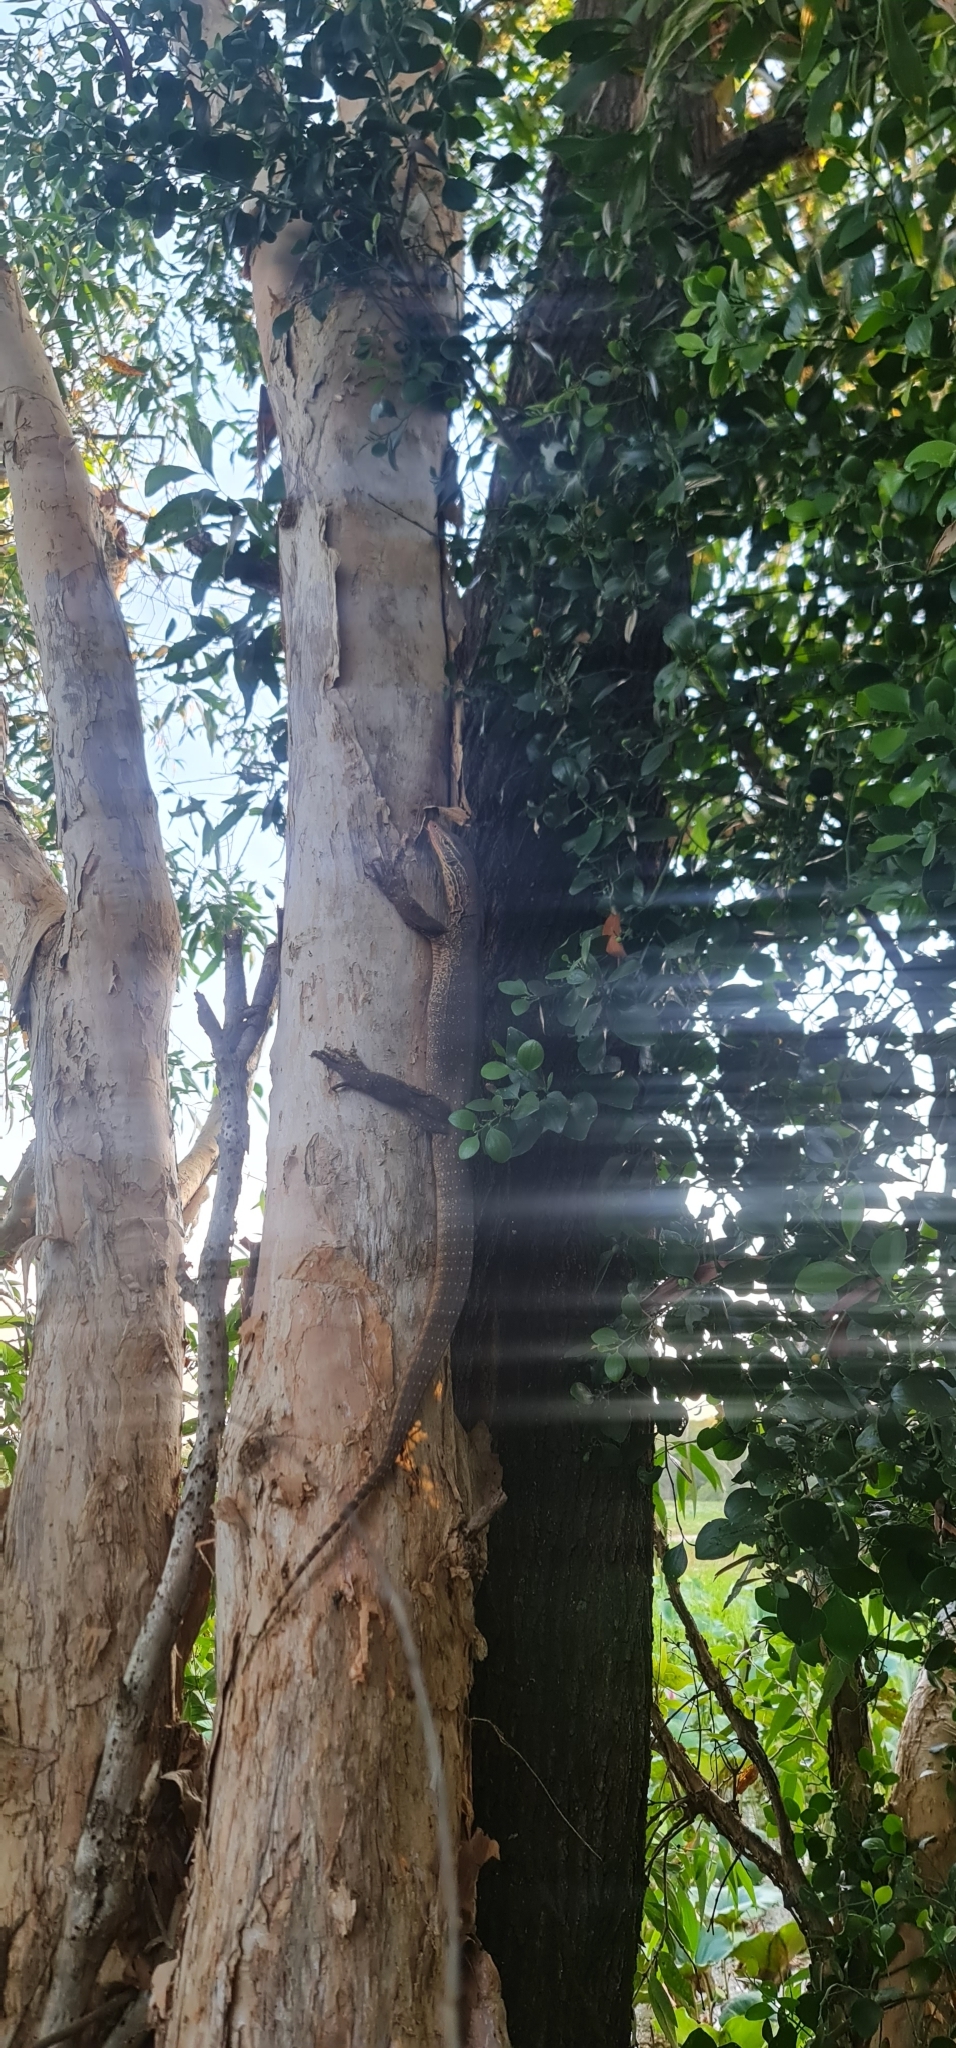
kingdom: Animalia
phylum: Chordata
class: Squamata
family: Varanidae
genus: Varanus
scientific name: Varanus panoptes
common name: Yellow-spotted monitor
